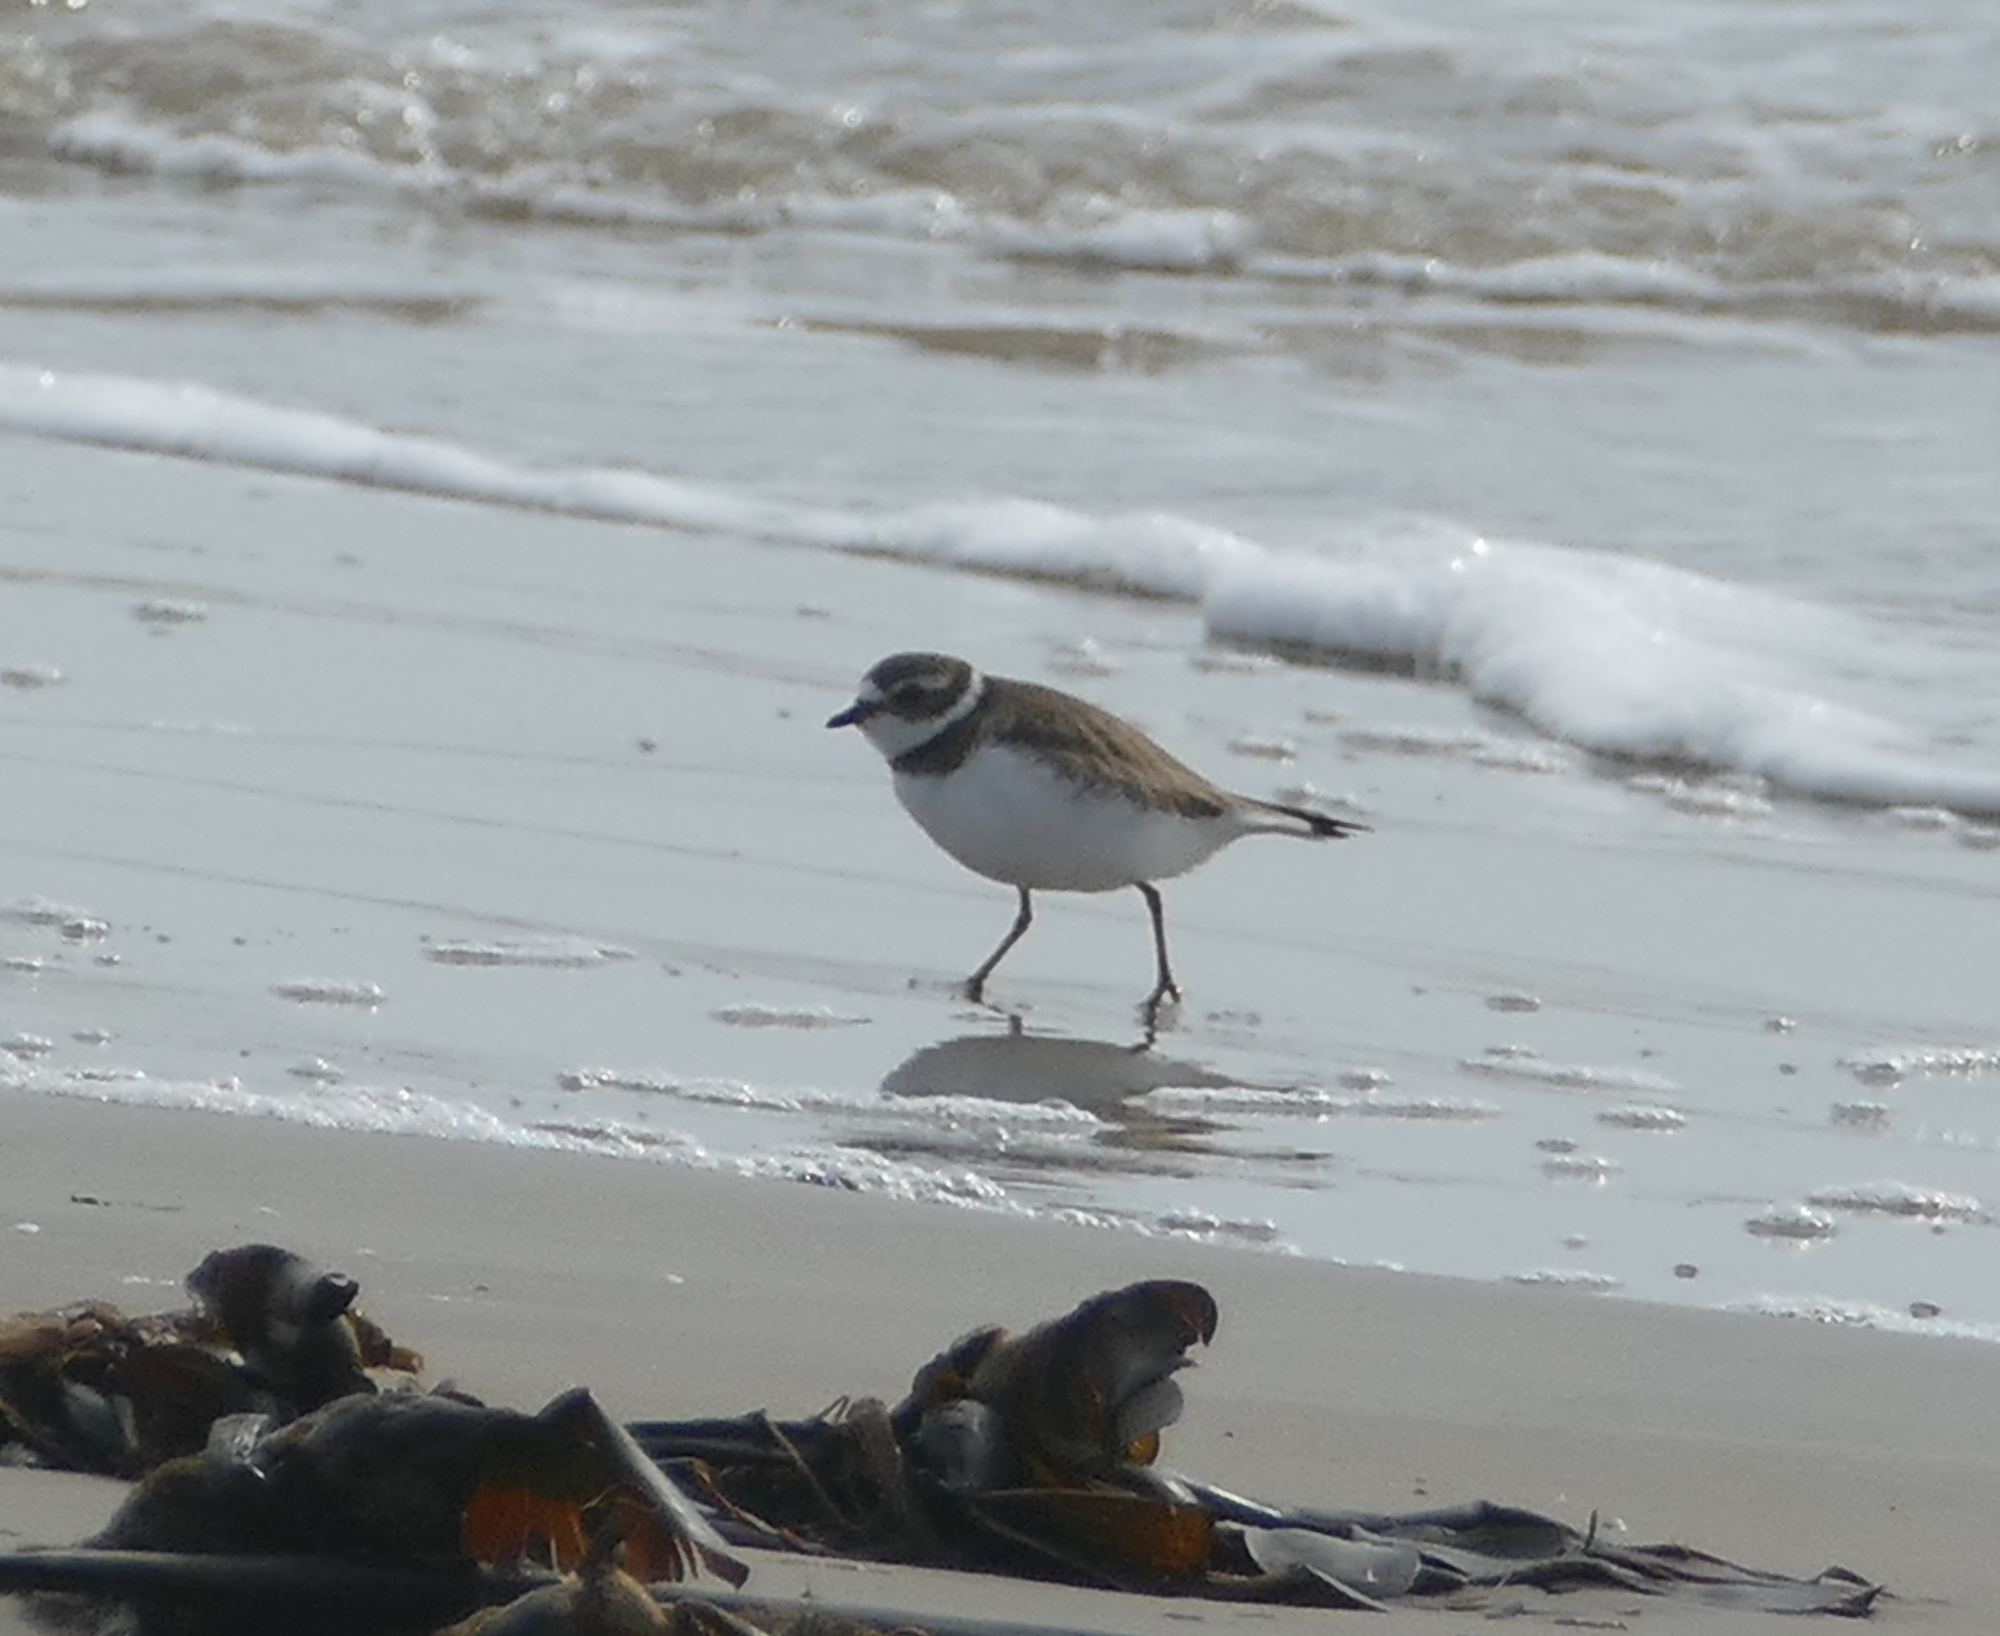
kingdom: Animalia
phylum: Chordata
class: Aves
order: Charadriiformes
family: Charadriidae
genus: Charadrius
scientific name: Charadrius semipalmatus
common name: Semipalmated plover
